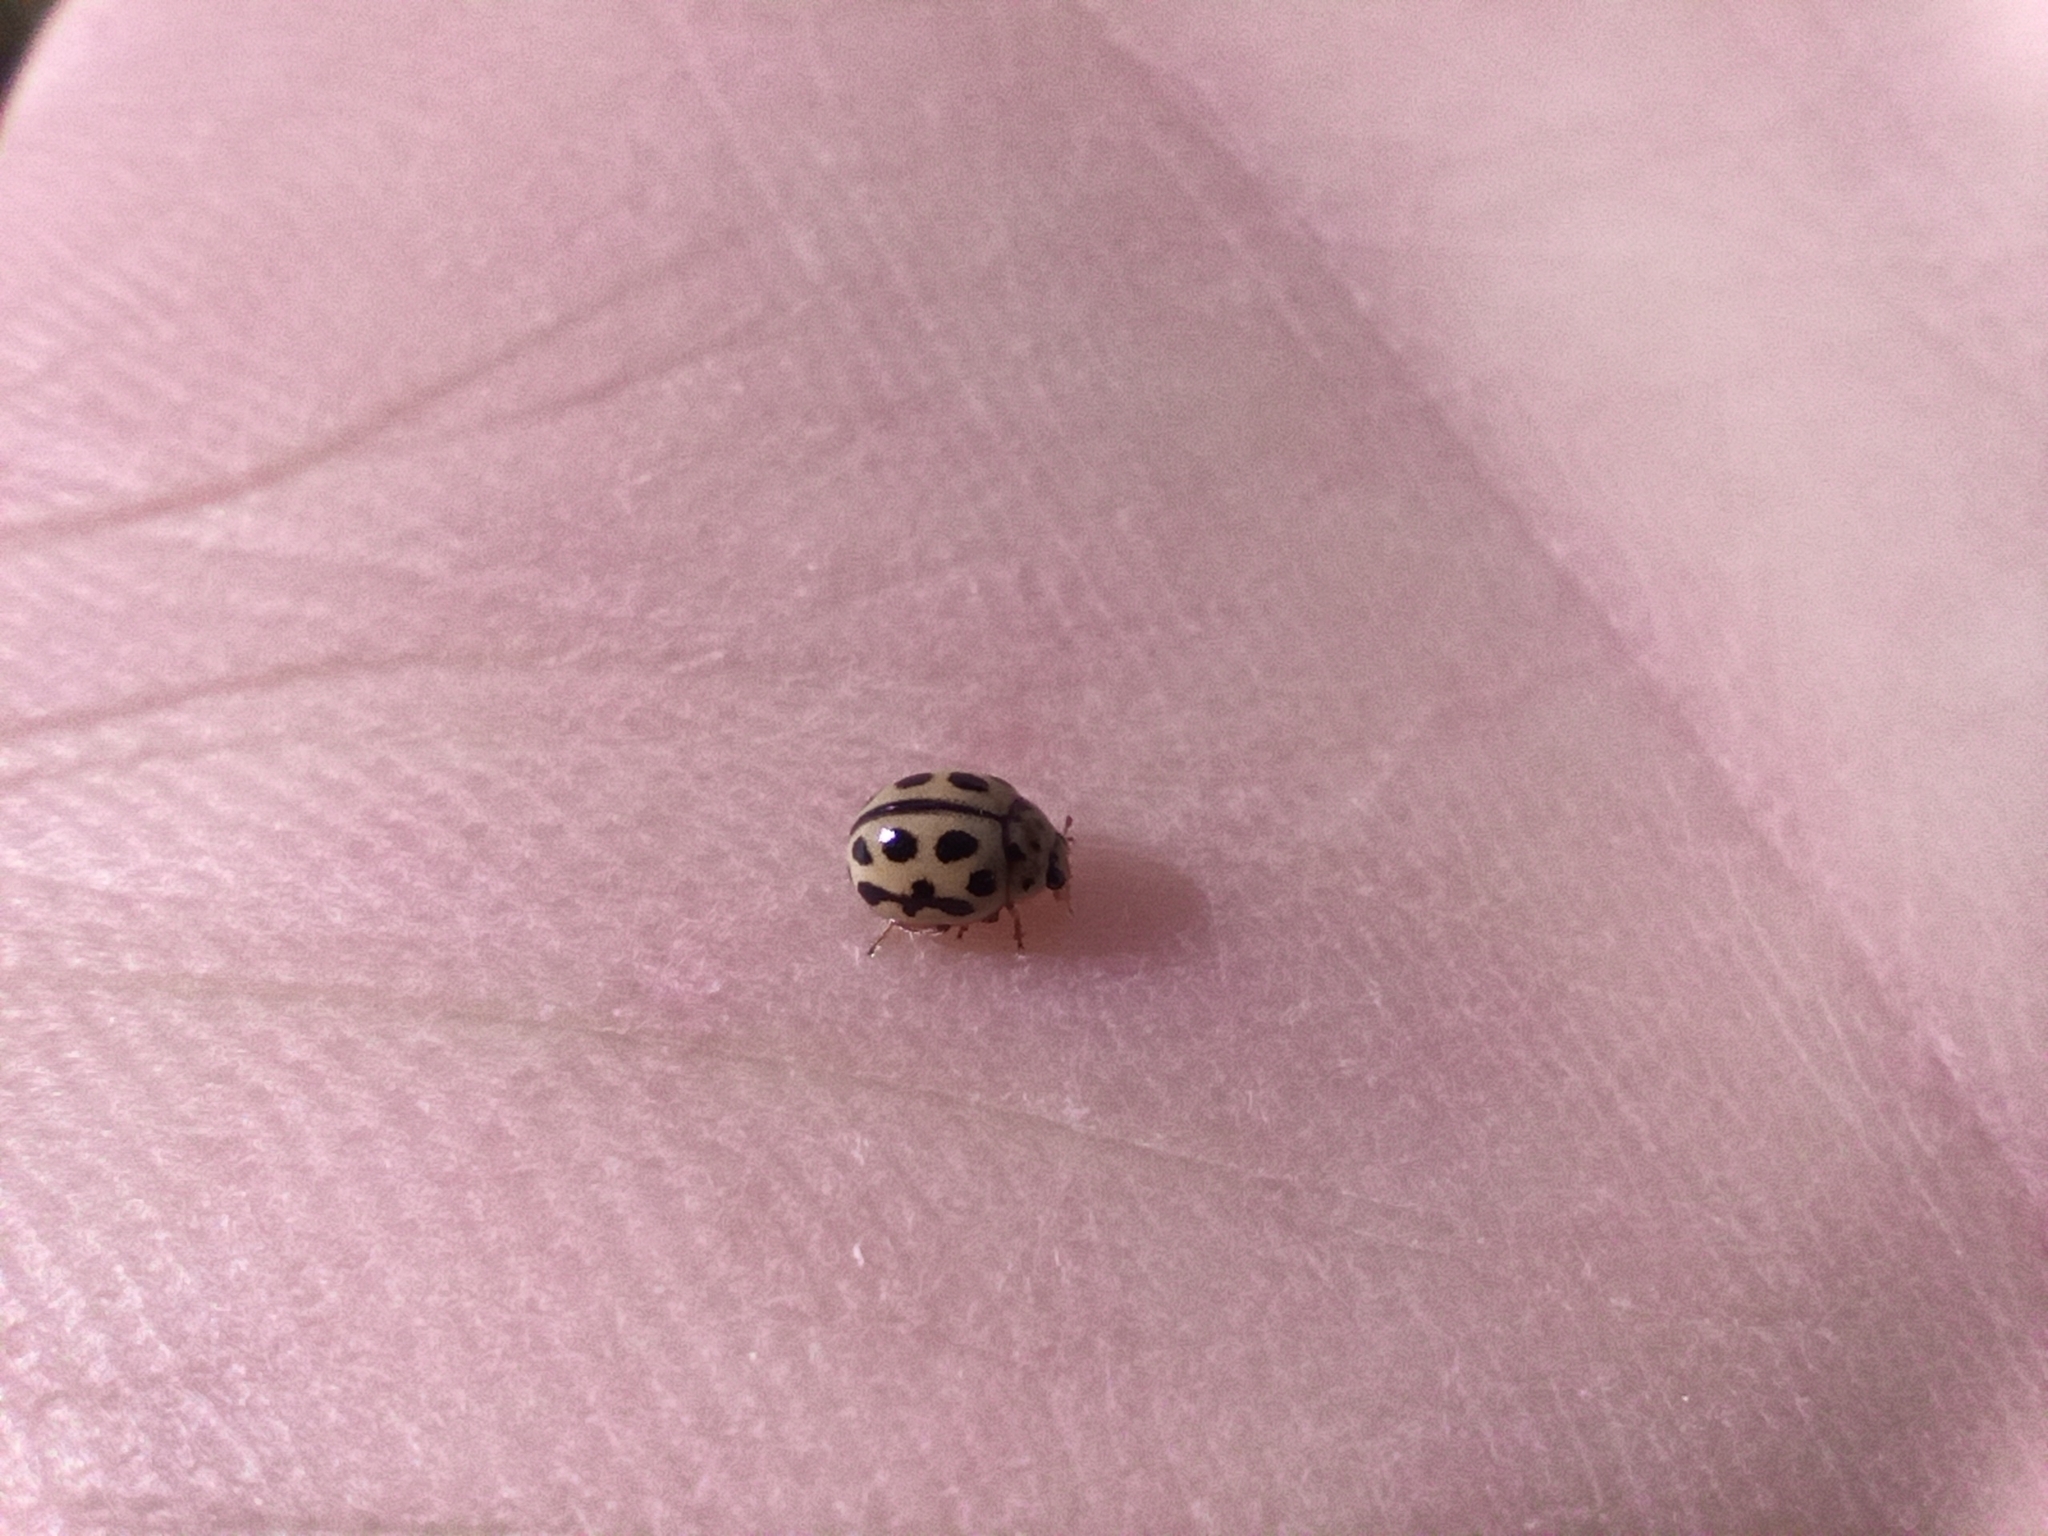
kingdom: Animalia
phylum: Arthropoda
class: Insecta
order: Coleoptera
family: Coccinellidae
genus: Tytthaspis
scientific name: Tytthaspis sedecimpunctata
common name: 16-spot ladybird
